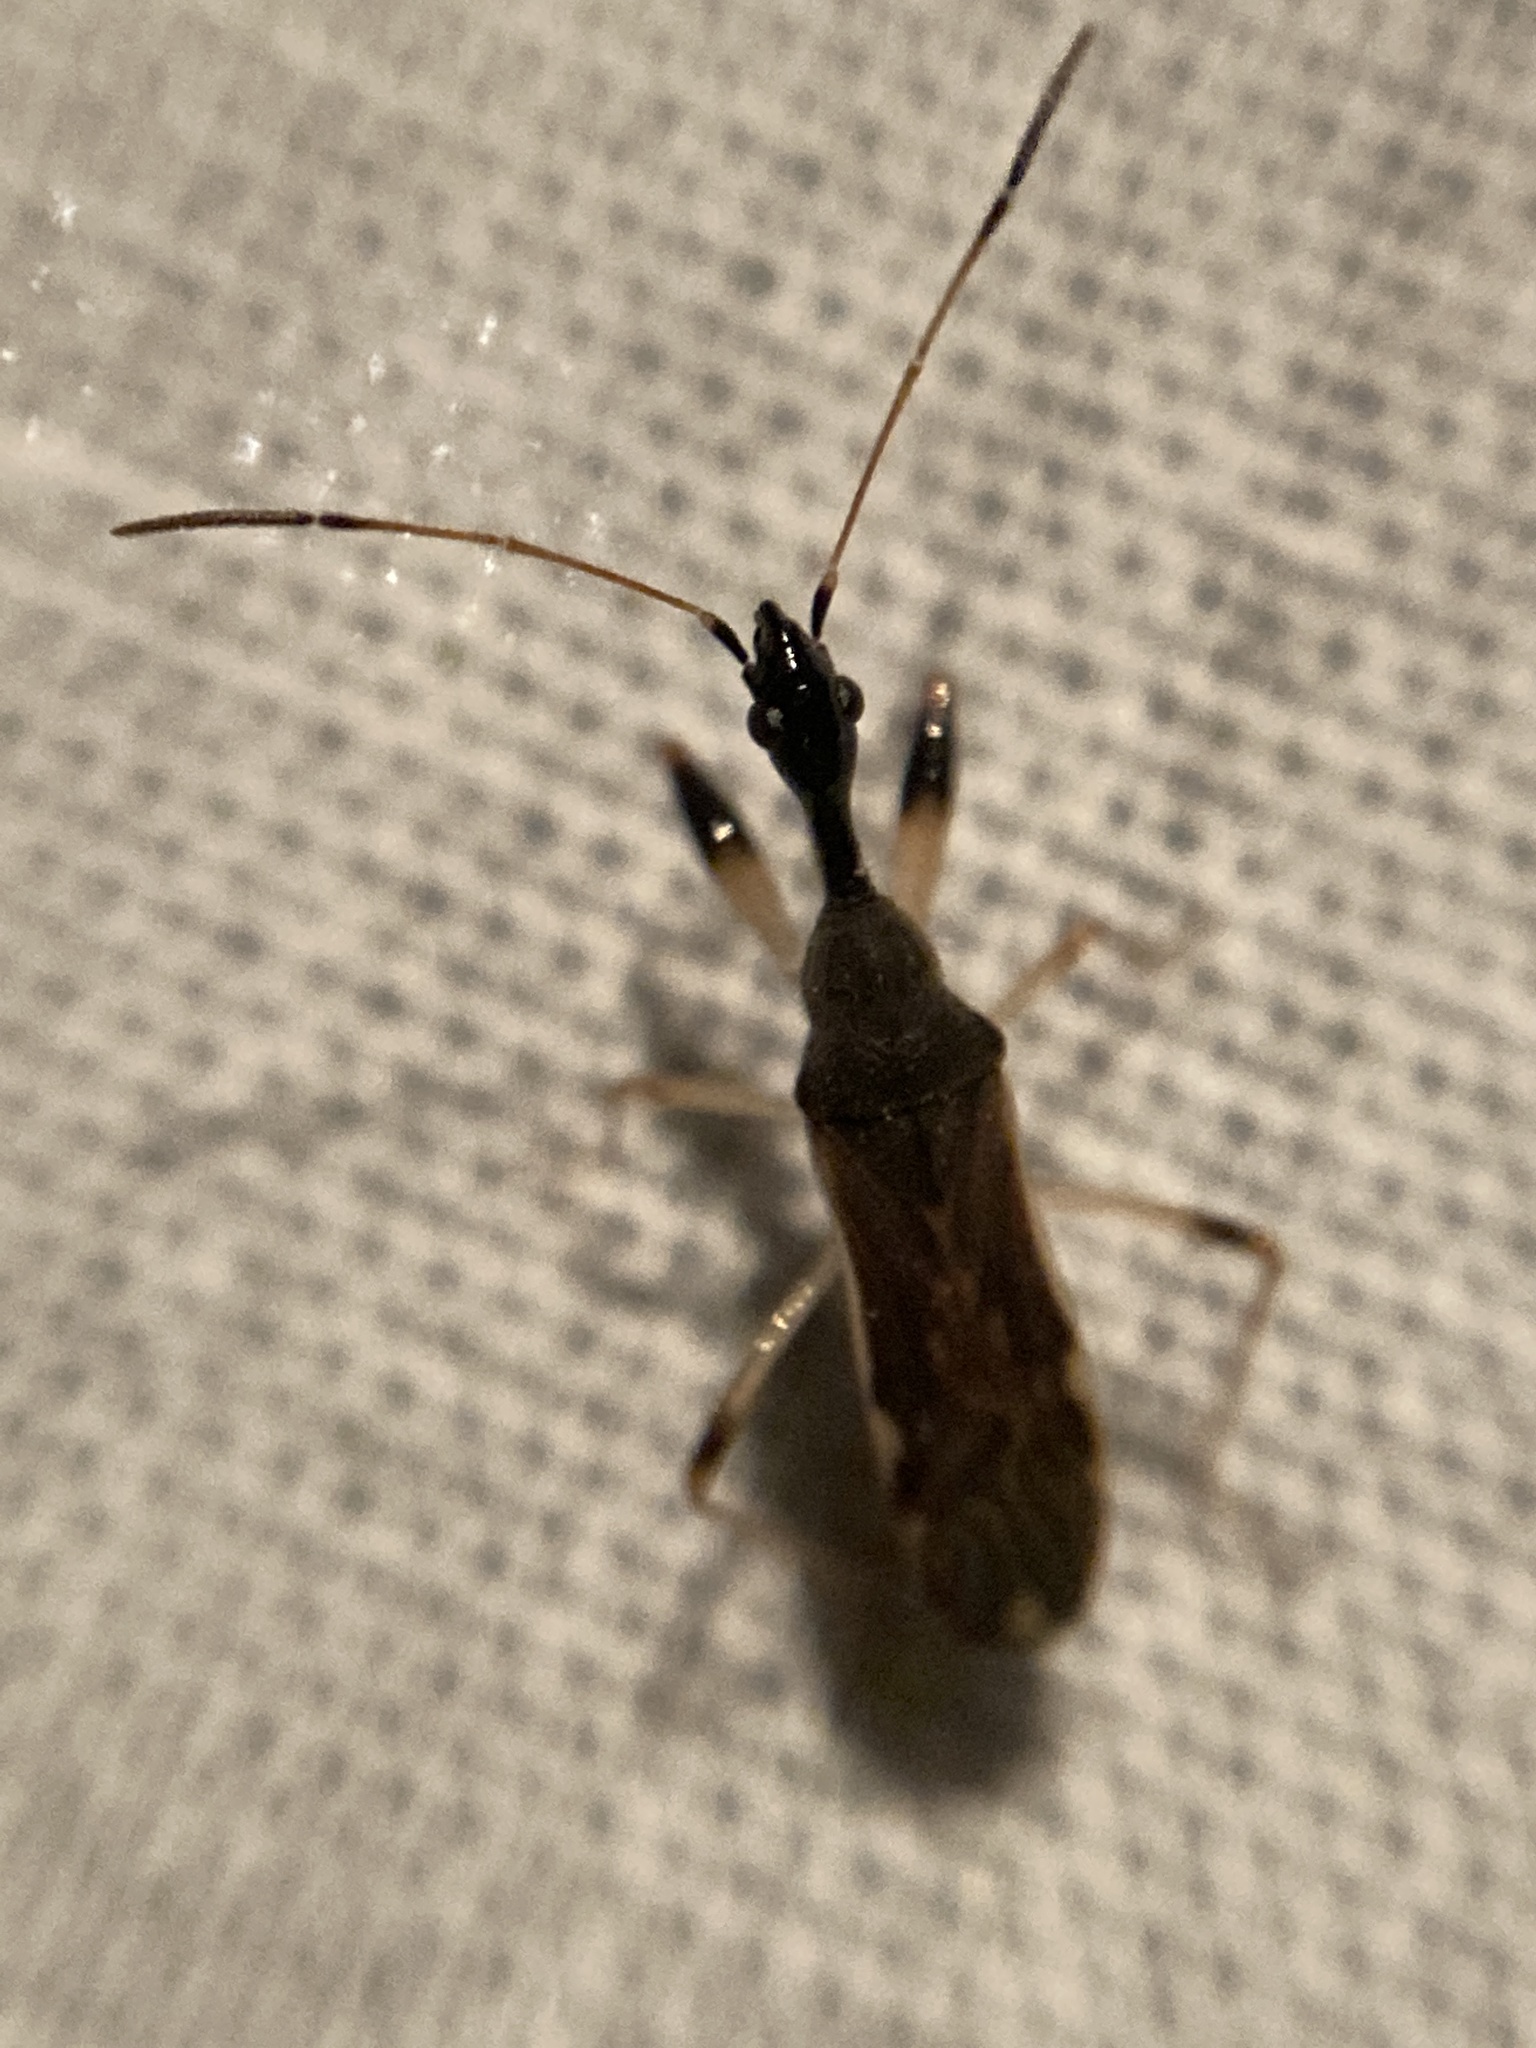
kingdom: Animalia
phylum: Arthropoda
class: Insecta
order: Hemiptera
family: Rhyparochromidae
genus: Myodocha
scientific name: Myodocha serripes
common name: Long-necked seed bug
